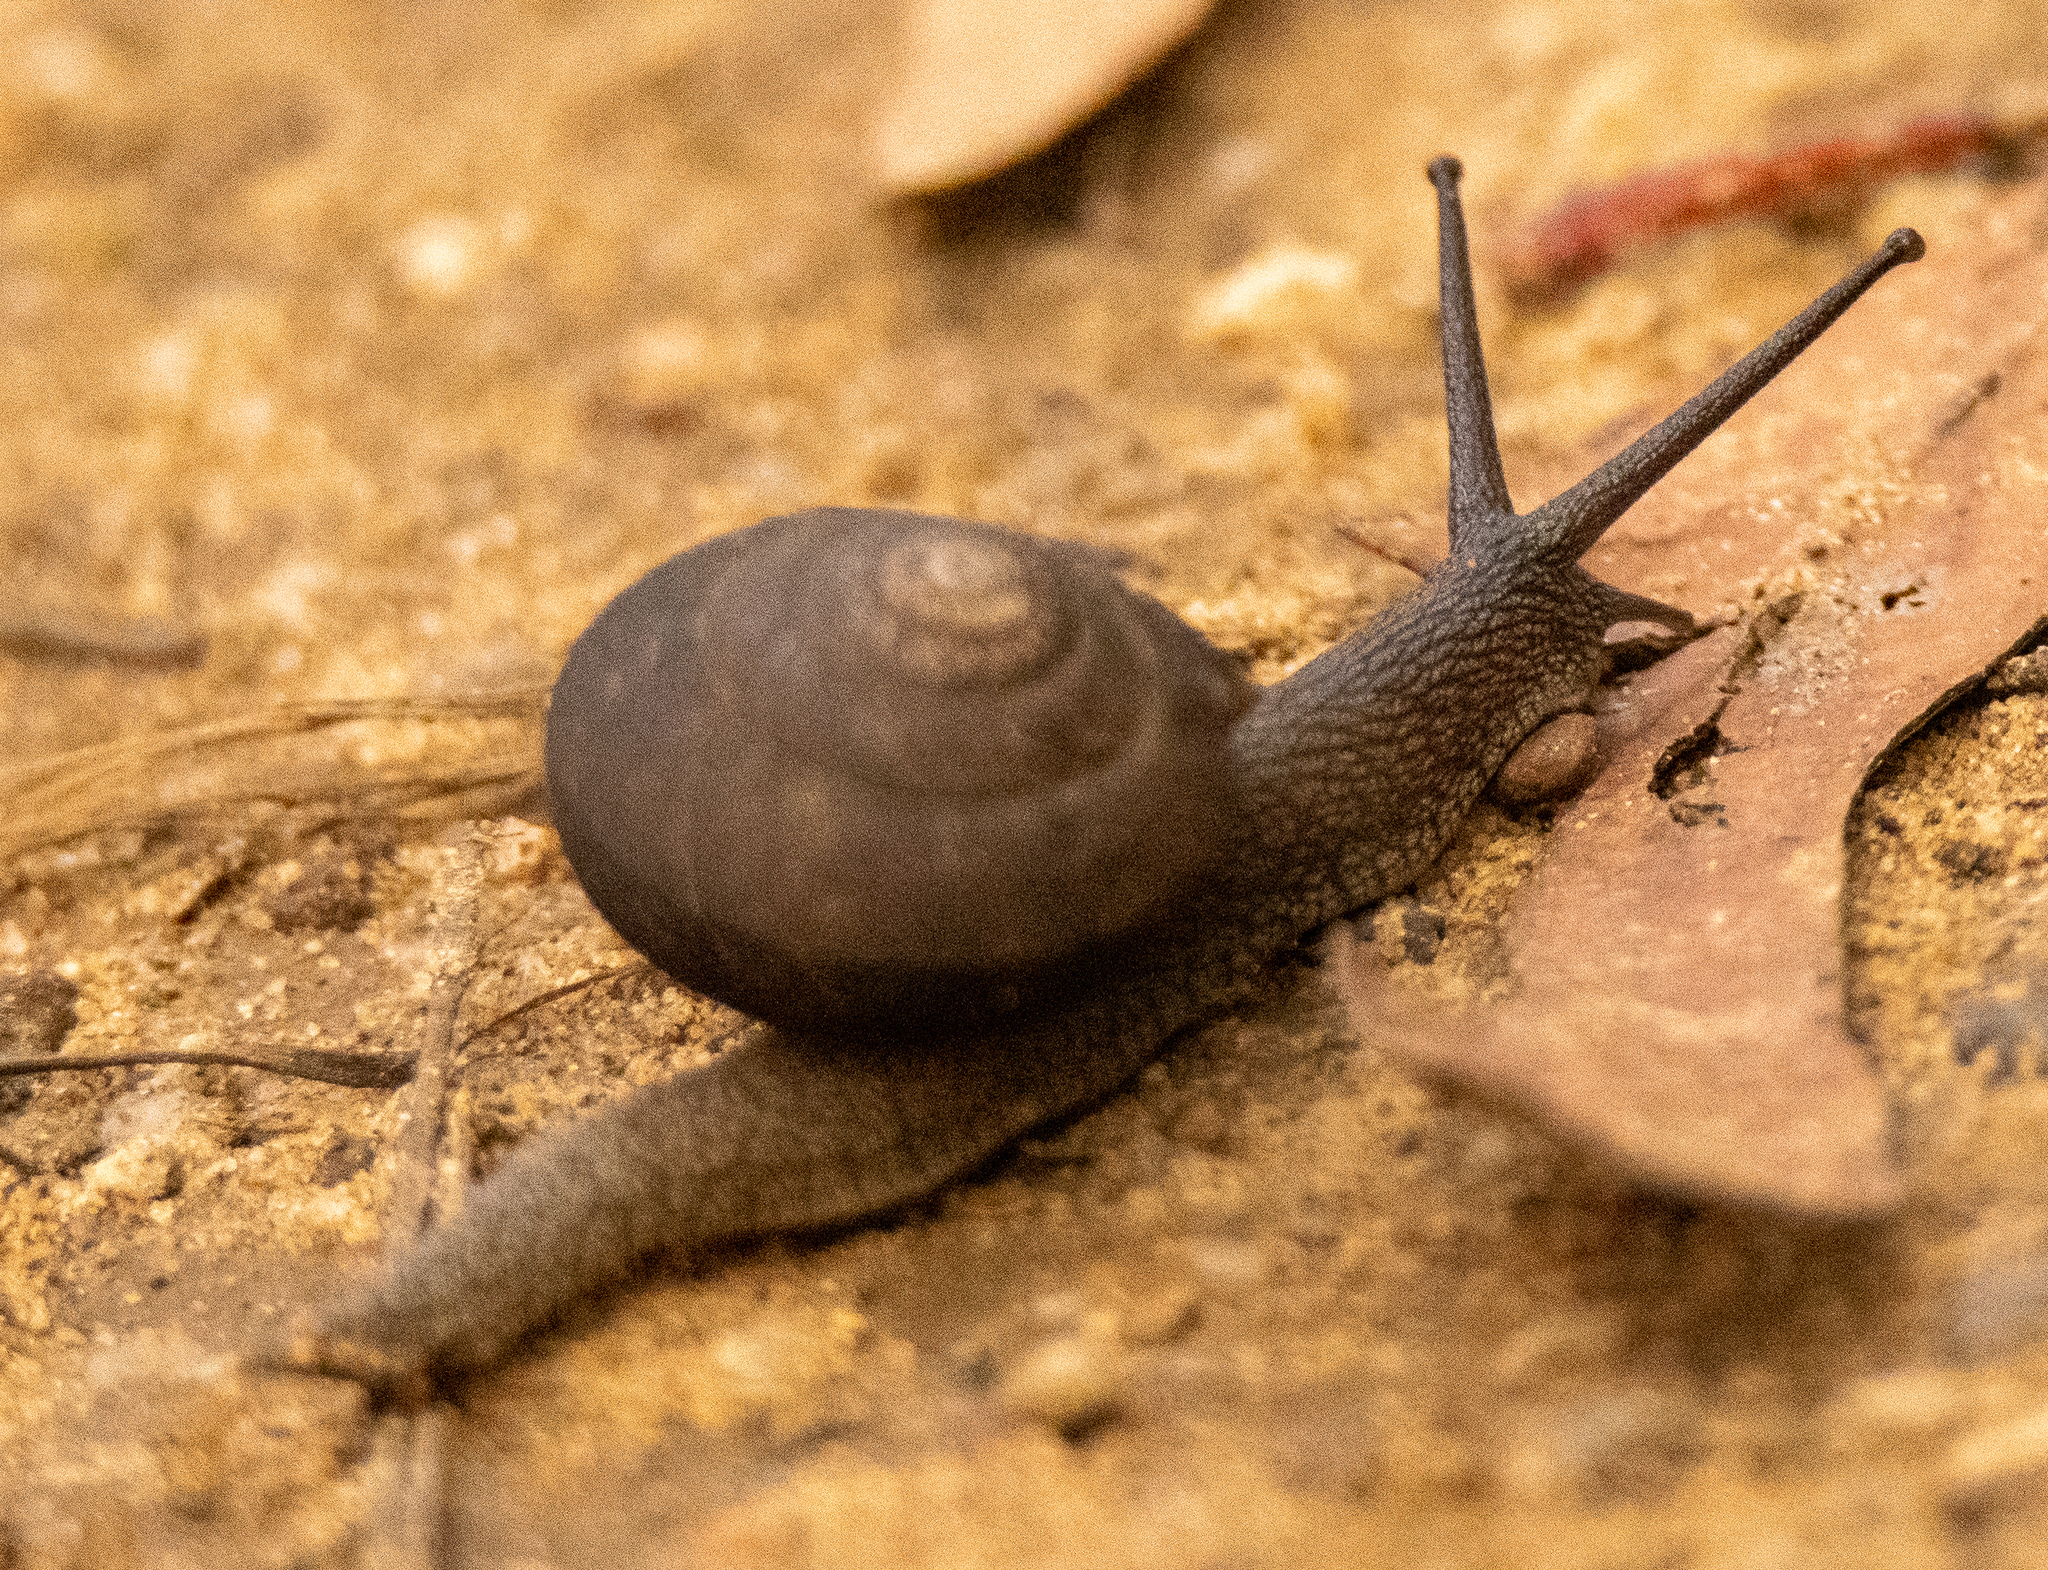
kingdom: Animalia
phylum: Mollusca
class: Gastropoda
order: Stylommatophora
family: Camaenidae
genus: Pommerhelix
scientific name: Pommerhelix monacha
